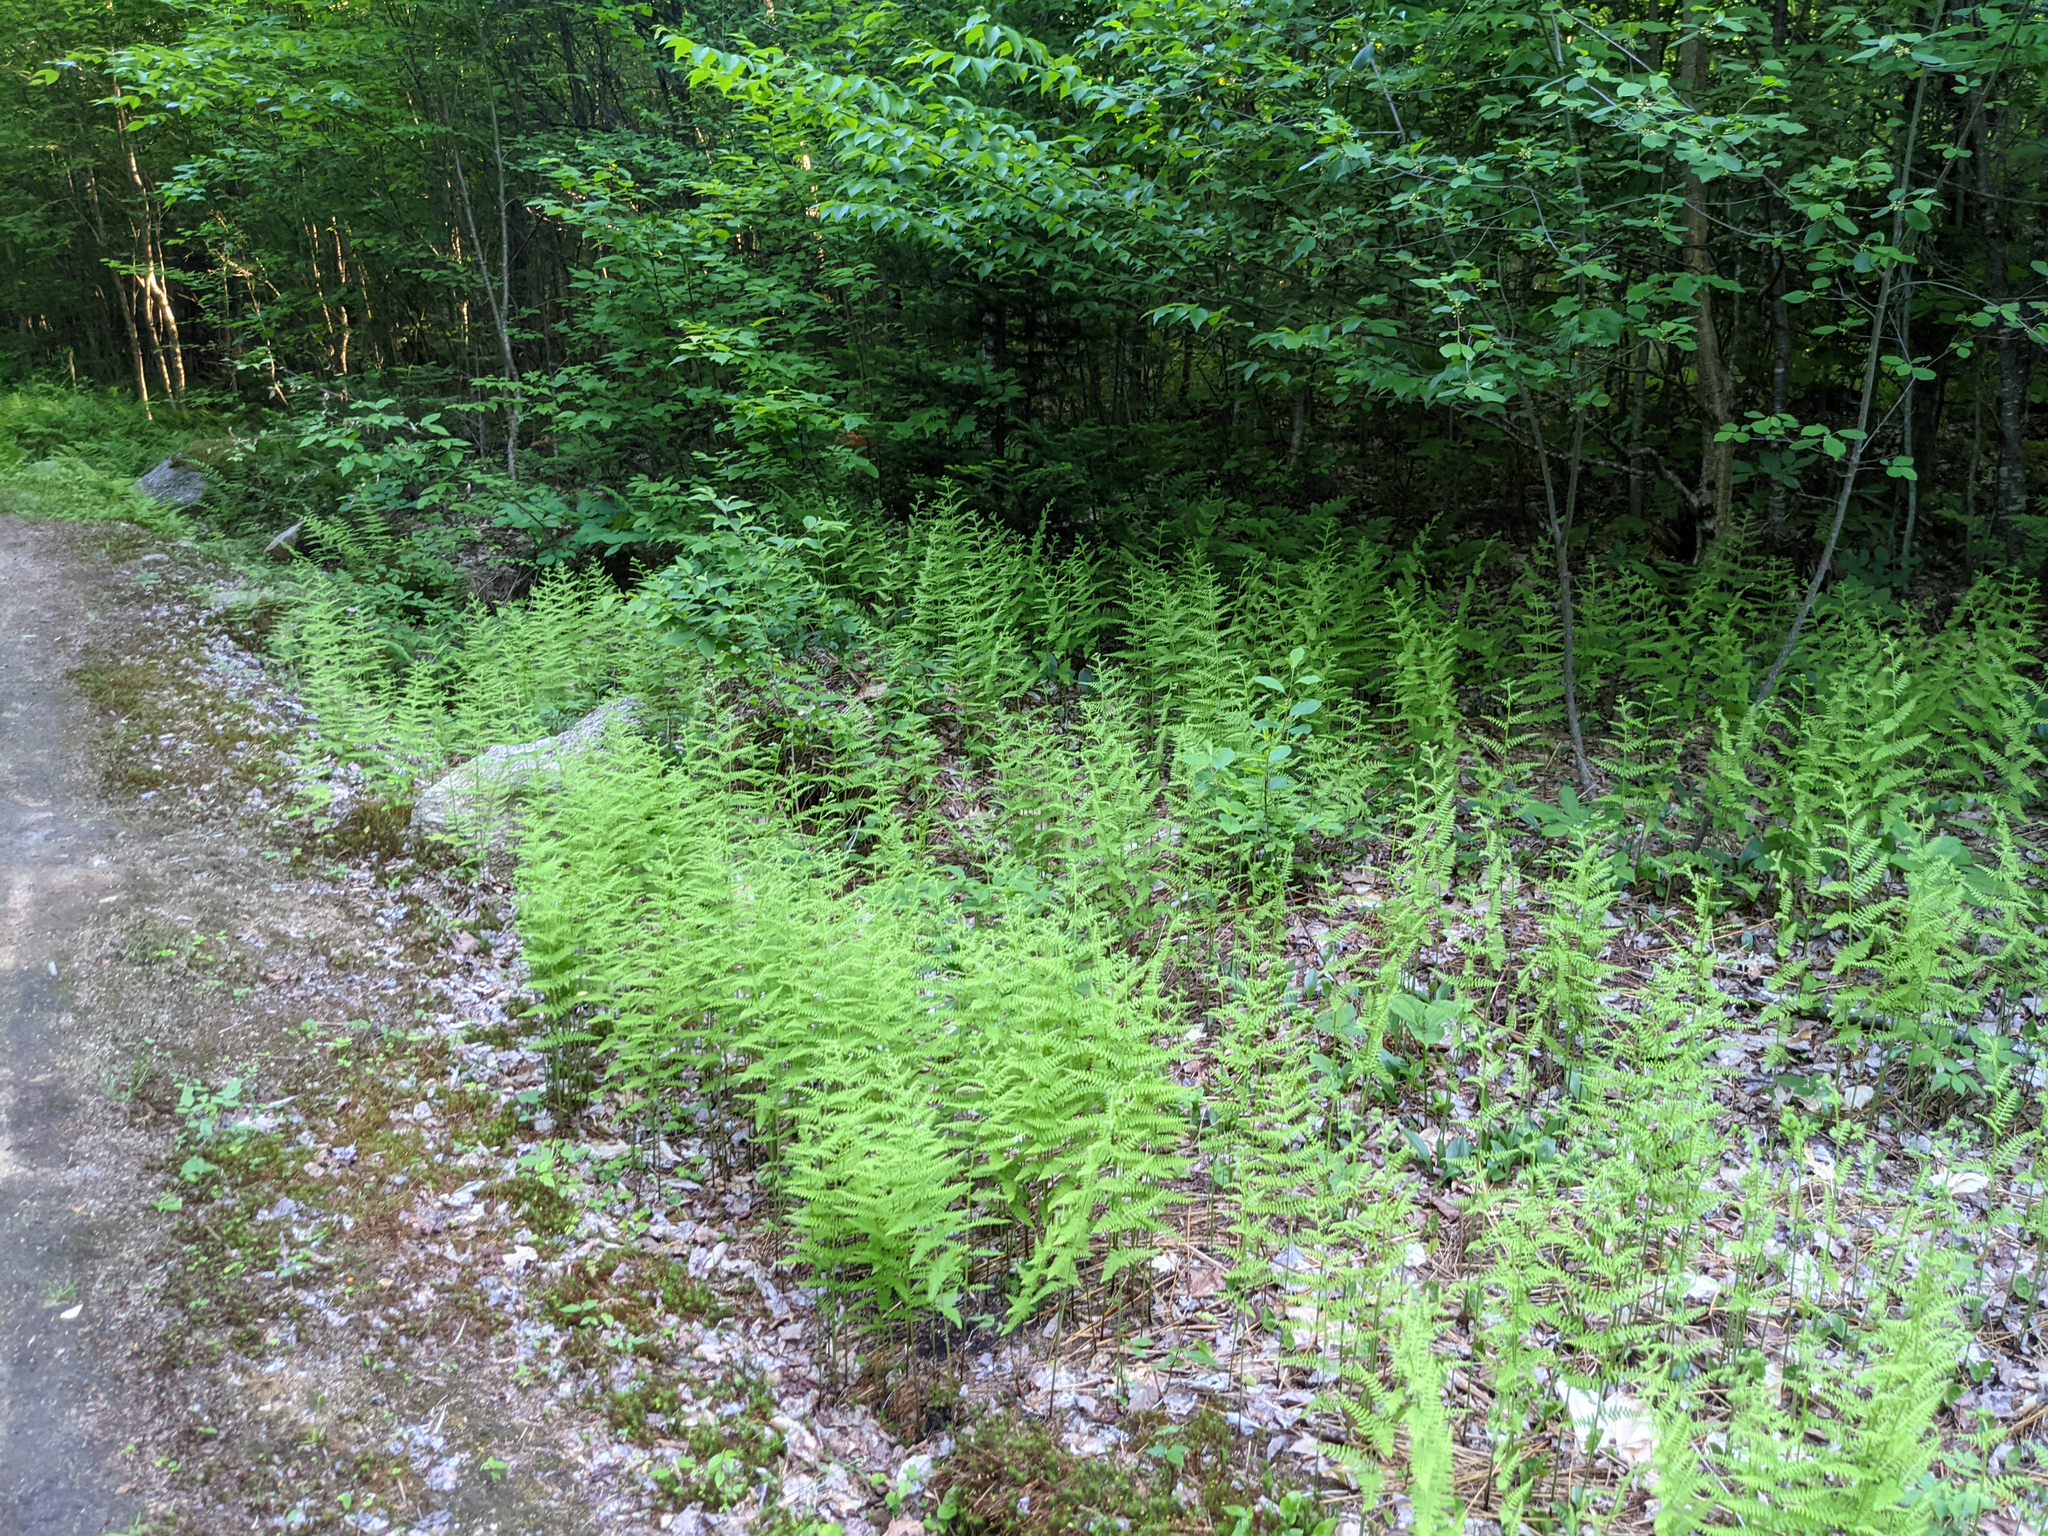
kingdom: Plantae
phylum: Tracheophyta
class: Polypodiopsida
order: Polypodiales
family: Athyriaceae
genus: Athyrium
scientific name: Athyrium angustum
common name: Northern lady fern
